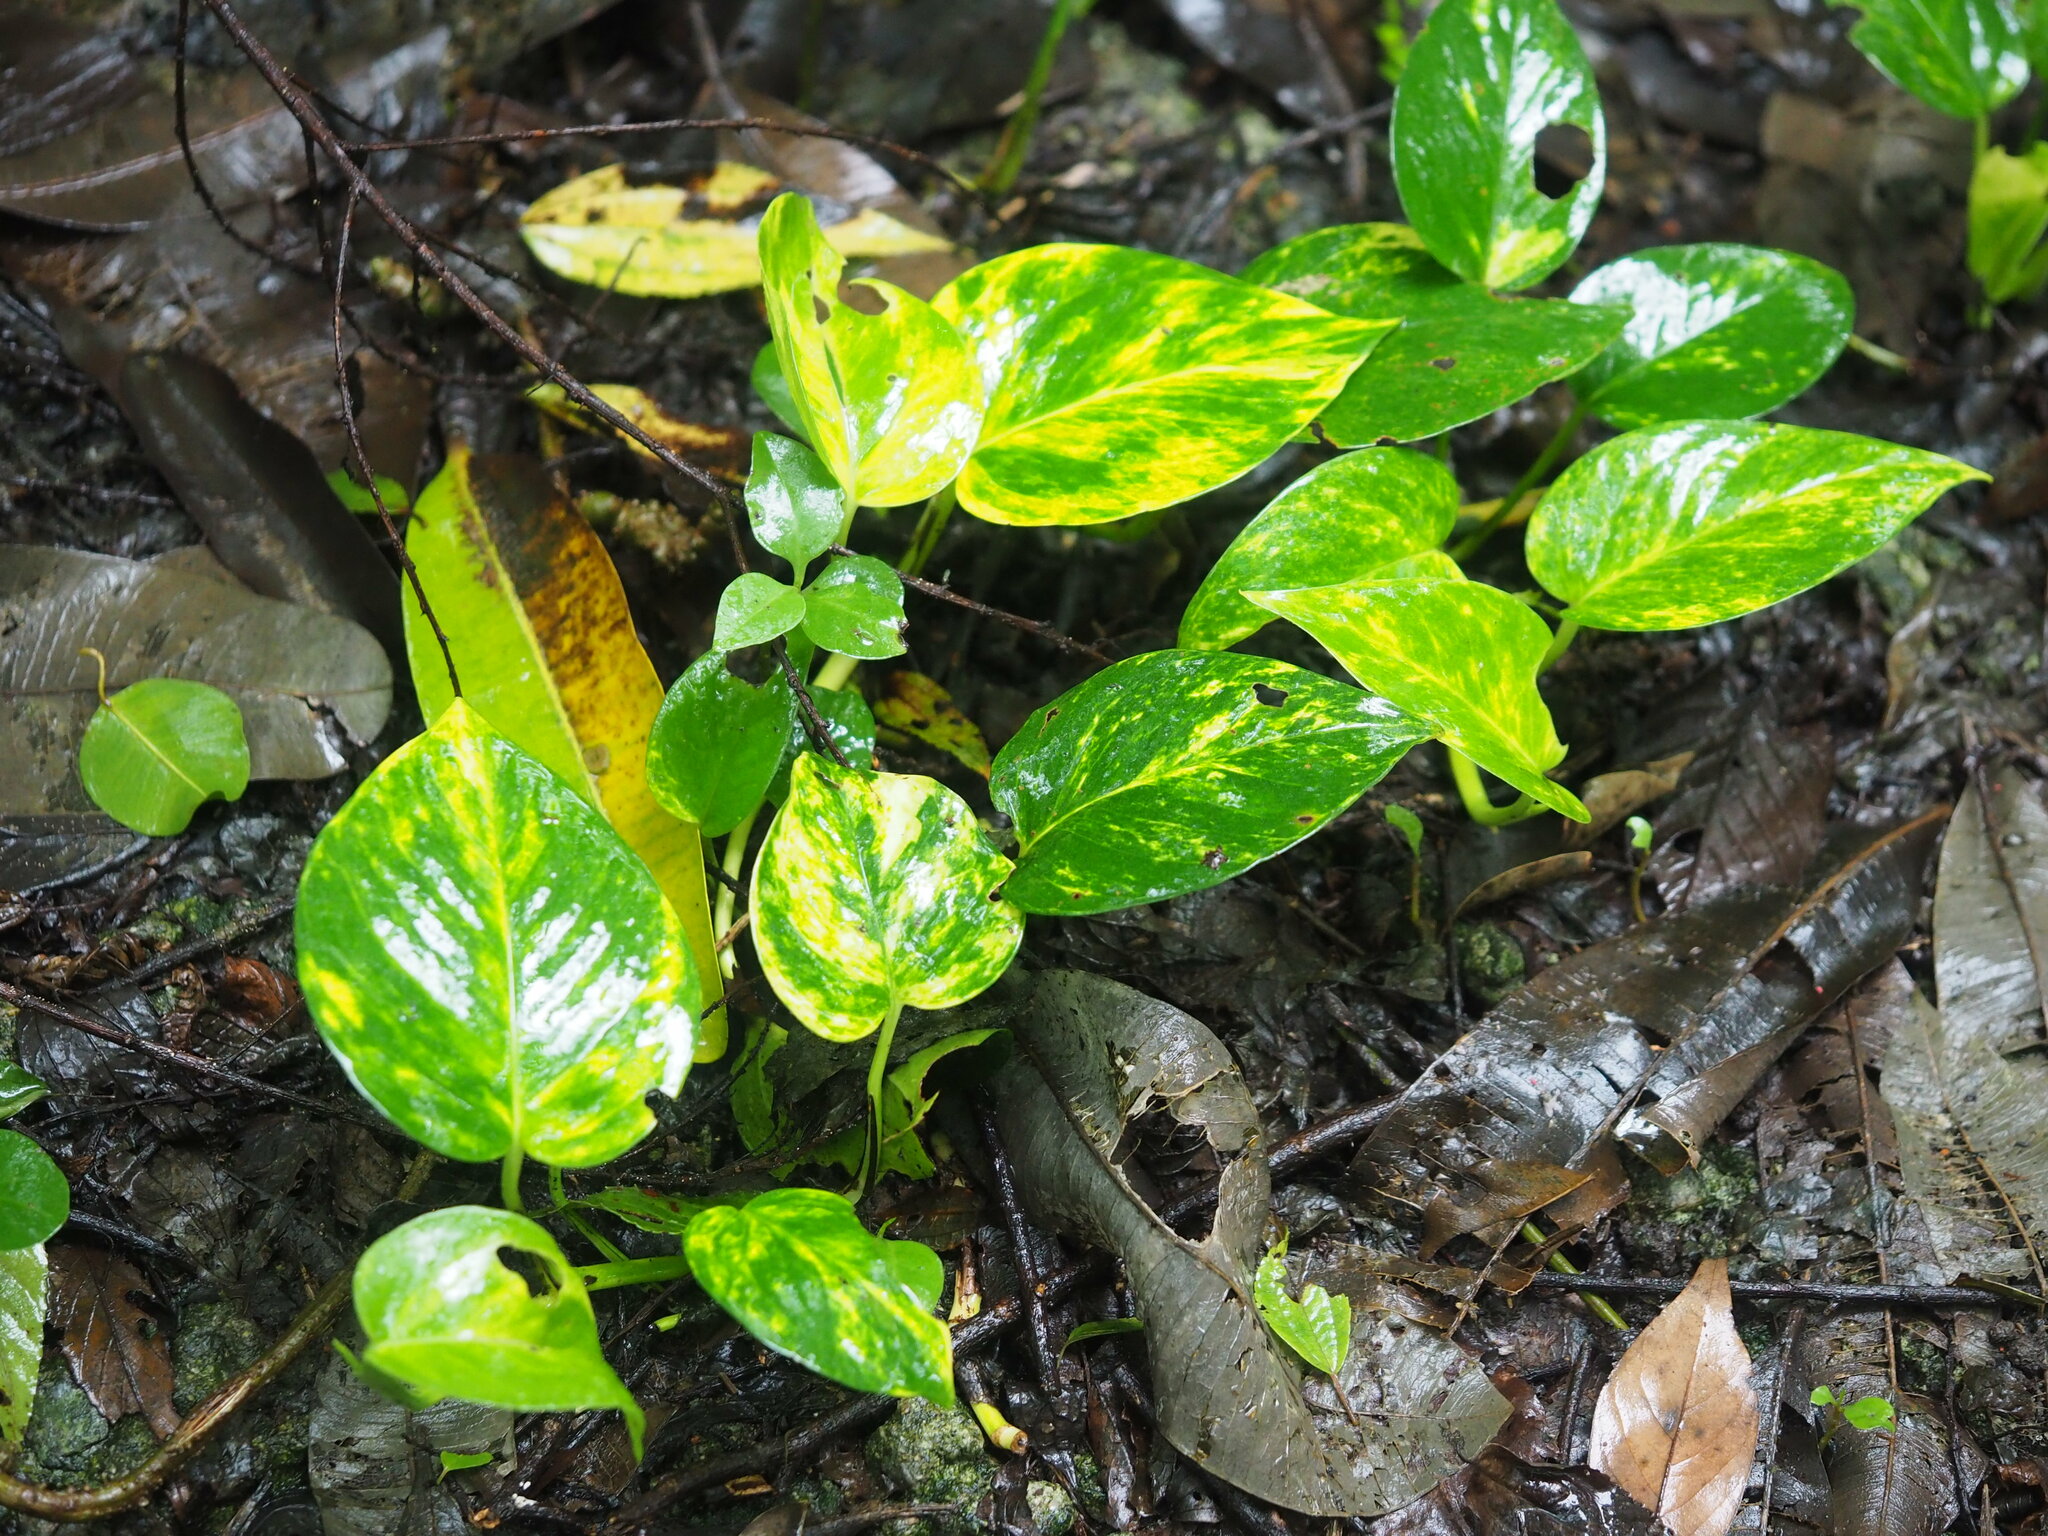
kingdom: Plantae
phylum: Tracheophyta
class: Liliopsida
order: Alismatales
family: Araceae
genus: Epipremnum
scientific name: Epipremnum aureum
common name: Golden hunter's-robe
